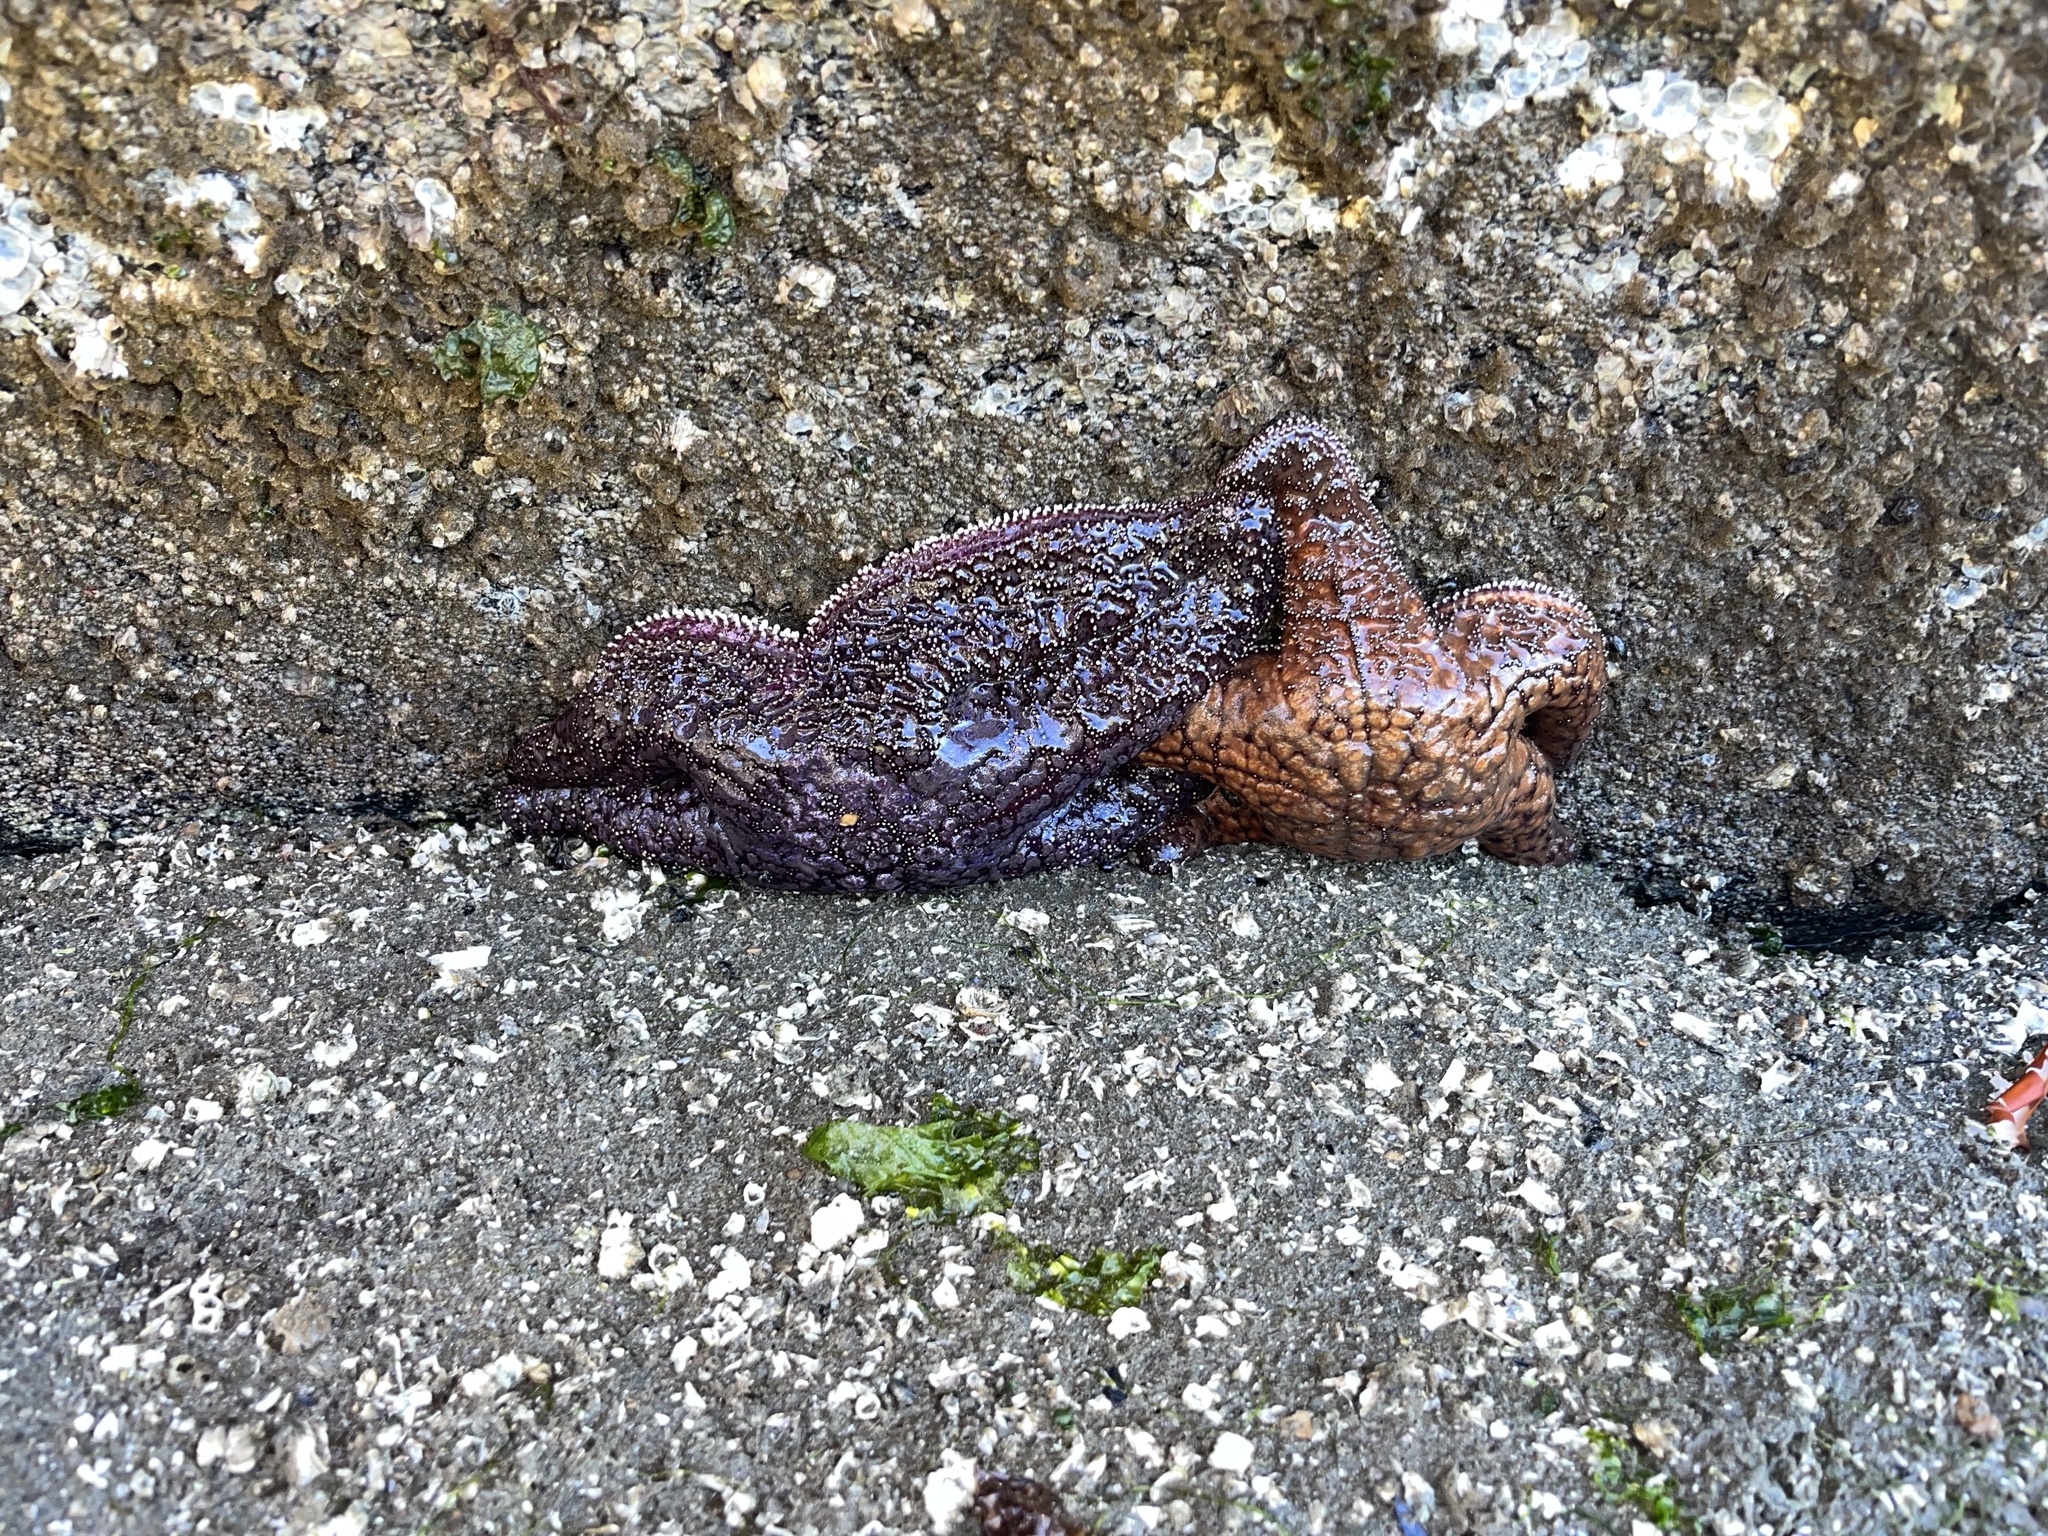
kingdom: Animalia
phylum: Echinodermata
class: Asteroidea
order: Forcipulatida
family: Asteriidae
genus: Pisaster
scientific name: Pisaster ochraceus
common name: Ochre stars
